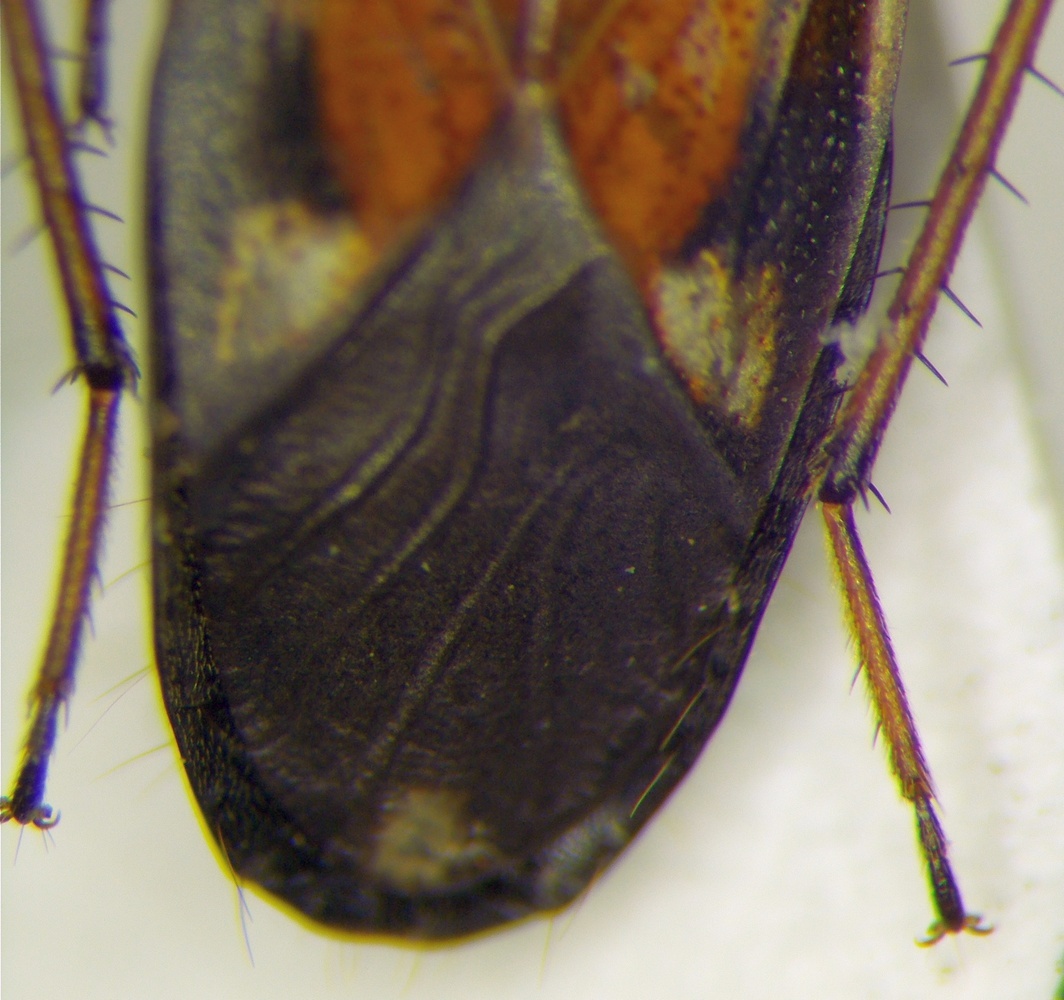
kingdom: Animalia
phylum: Arthropoda
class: Insecta
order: Hemiptera
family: Rhyparochromidae
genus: Raglius
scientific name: Raglius alboacuminatus
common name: Dirt-colored seed bug
